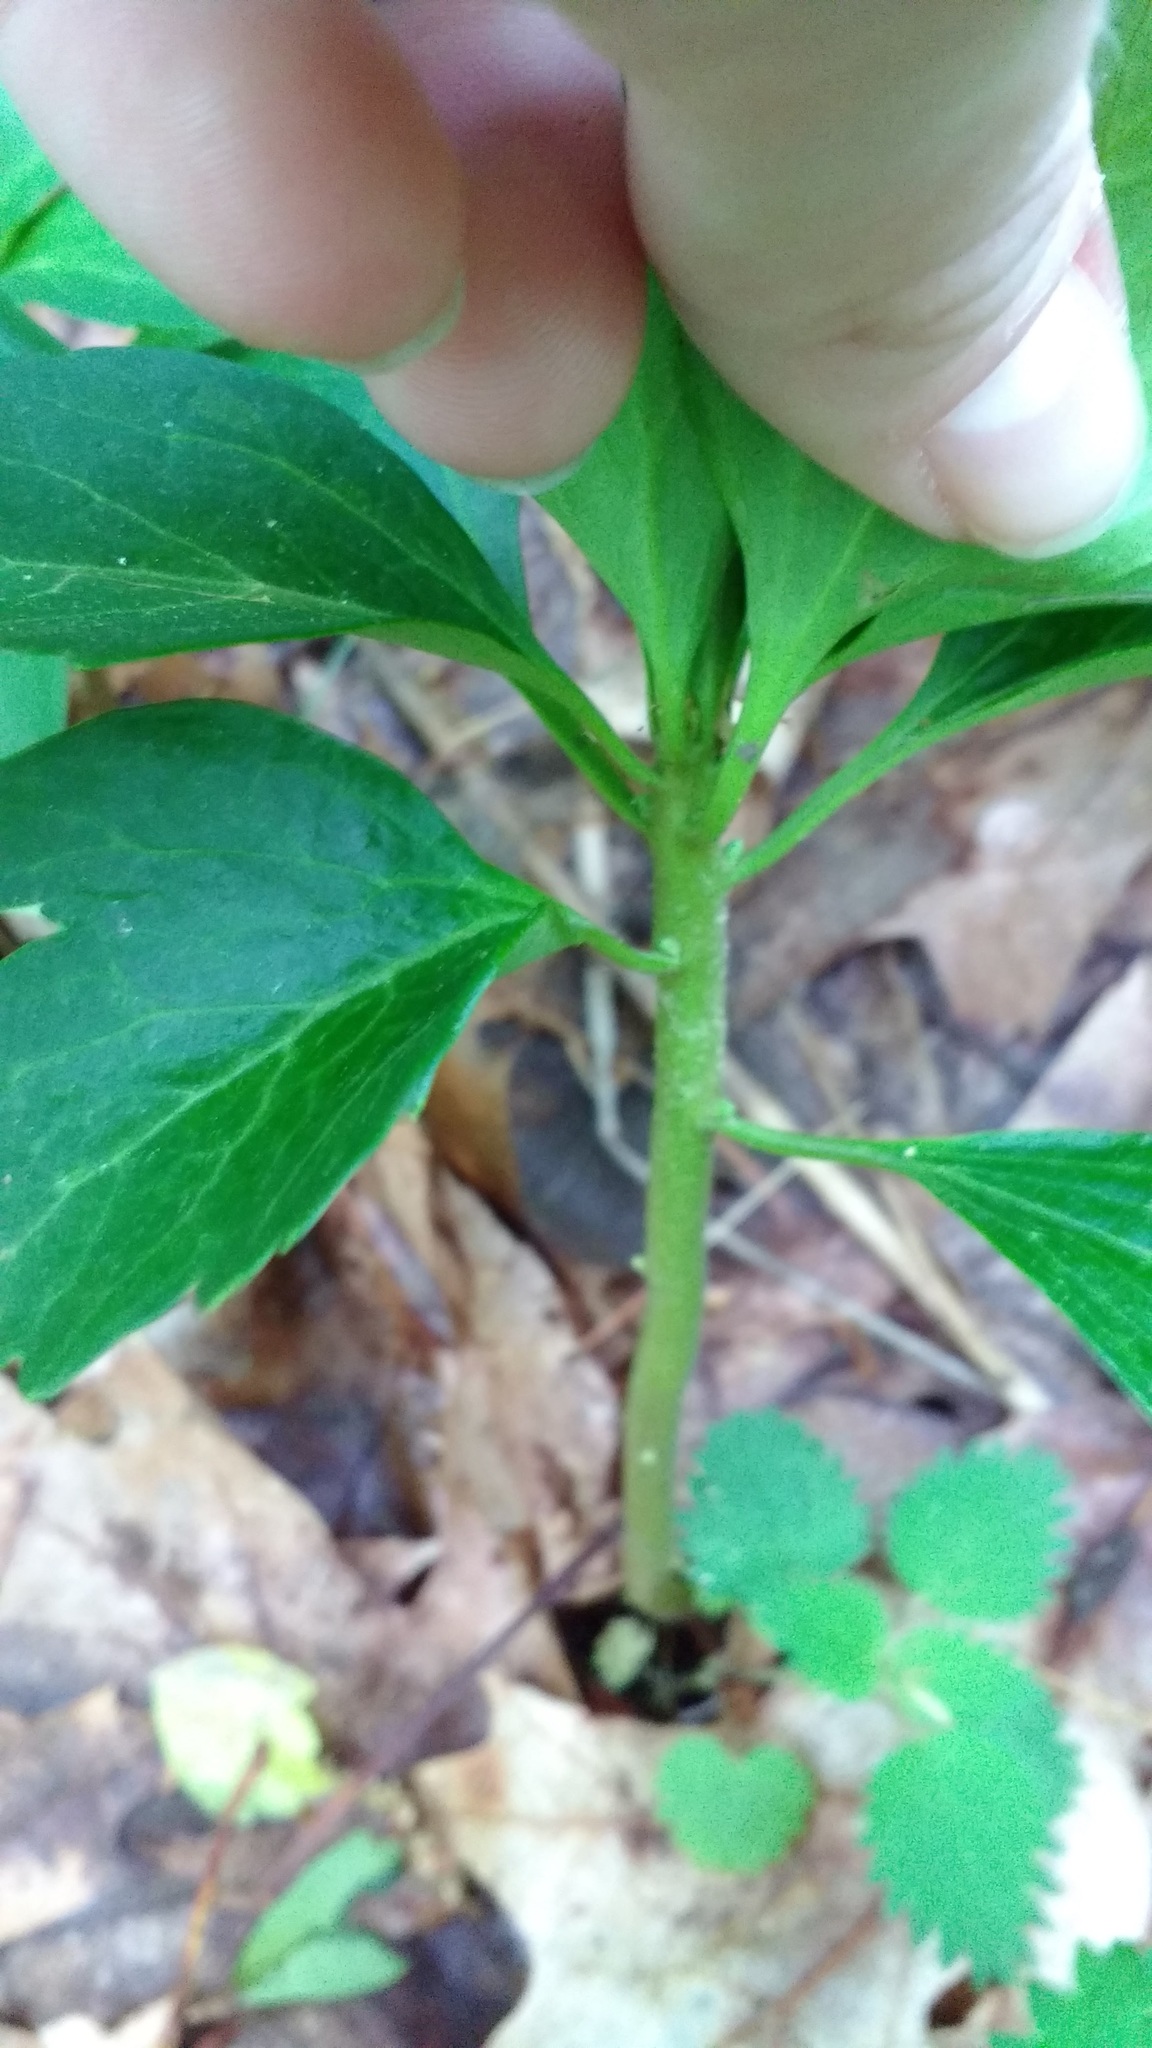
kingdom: Plantae
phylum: Tracheophyta
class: Magnoliopsida
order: Buxales
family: Buxaceae
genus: Pachysandra
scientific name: Pachysandra terminalis
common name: Japanese pachysandra
